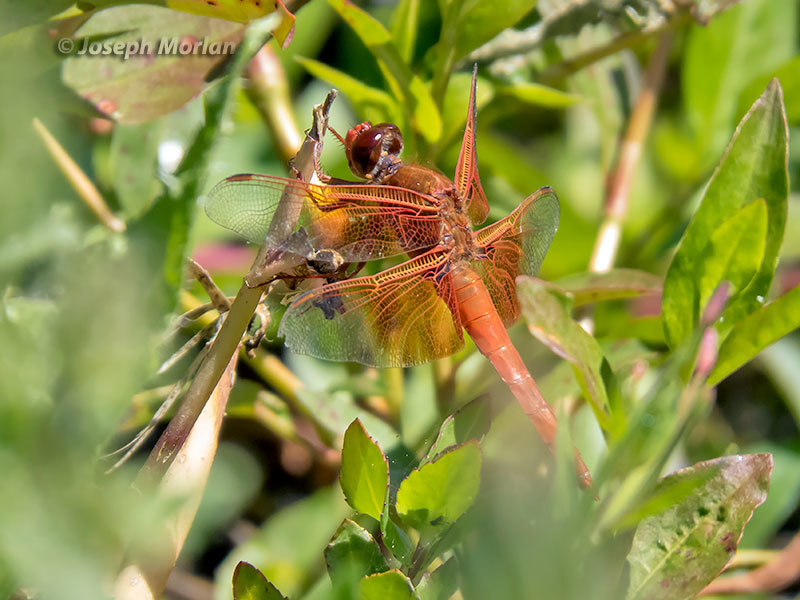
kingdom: Animalia
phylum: Arthropoda
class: Insecta
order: Odonata
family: Libellulidae
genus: Libellula
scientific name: Libellula saturata
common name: Flame skimmer
